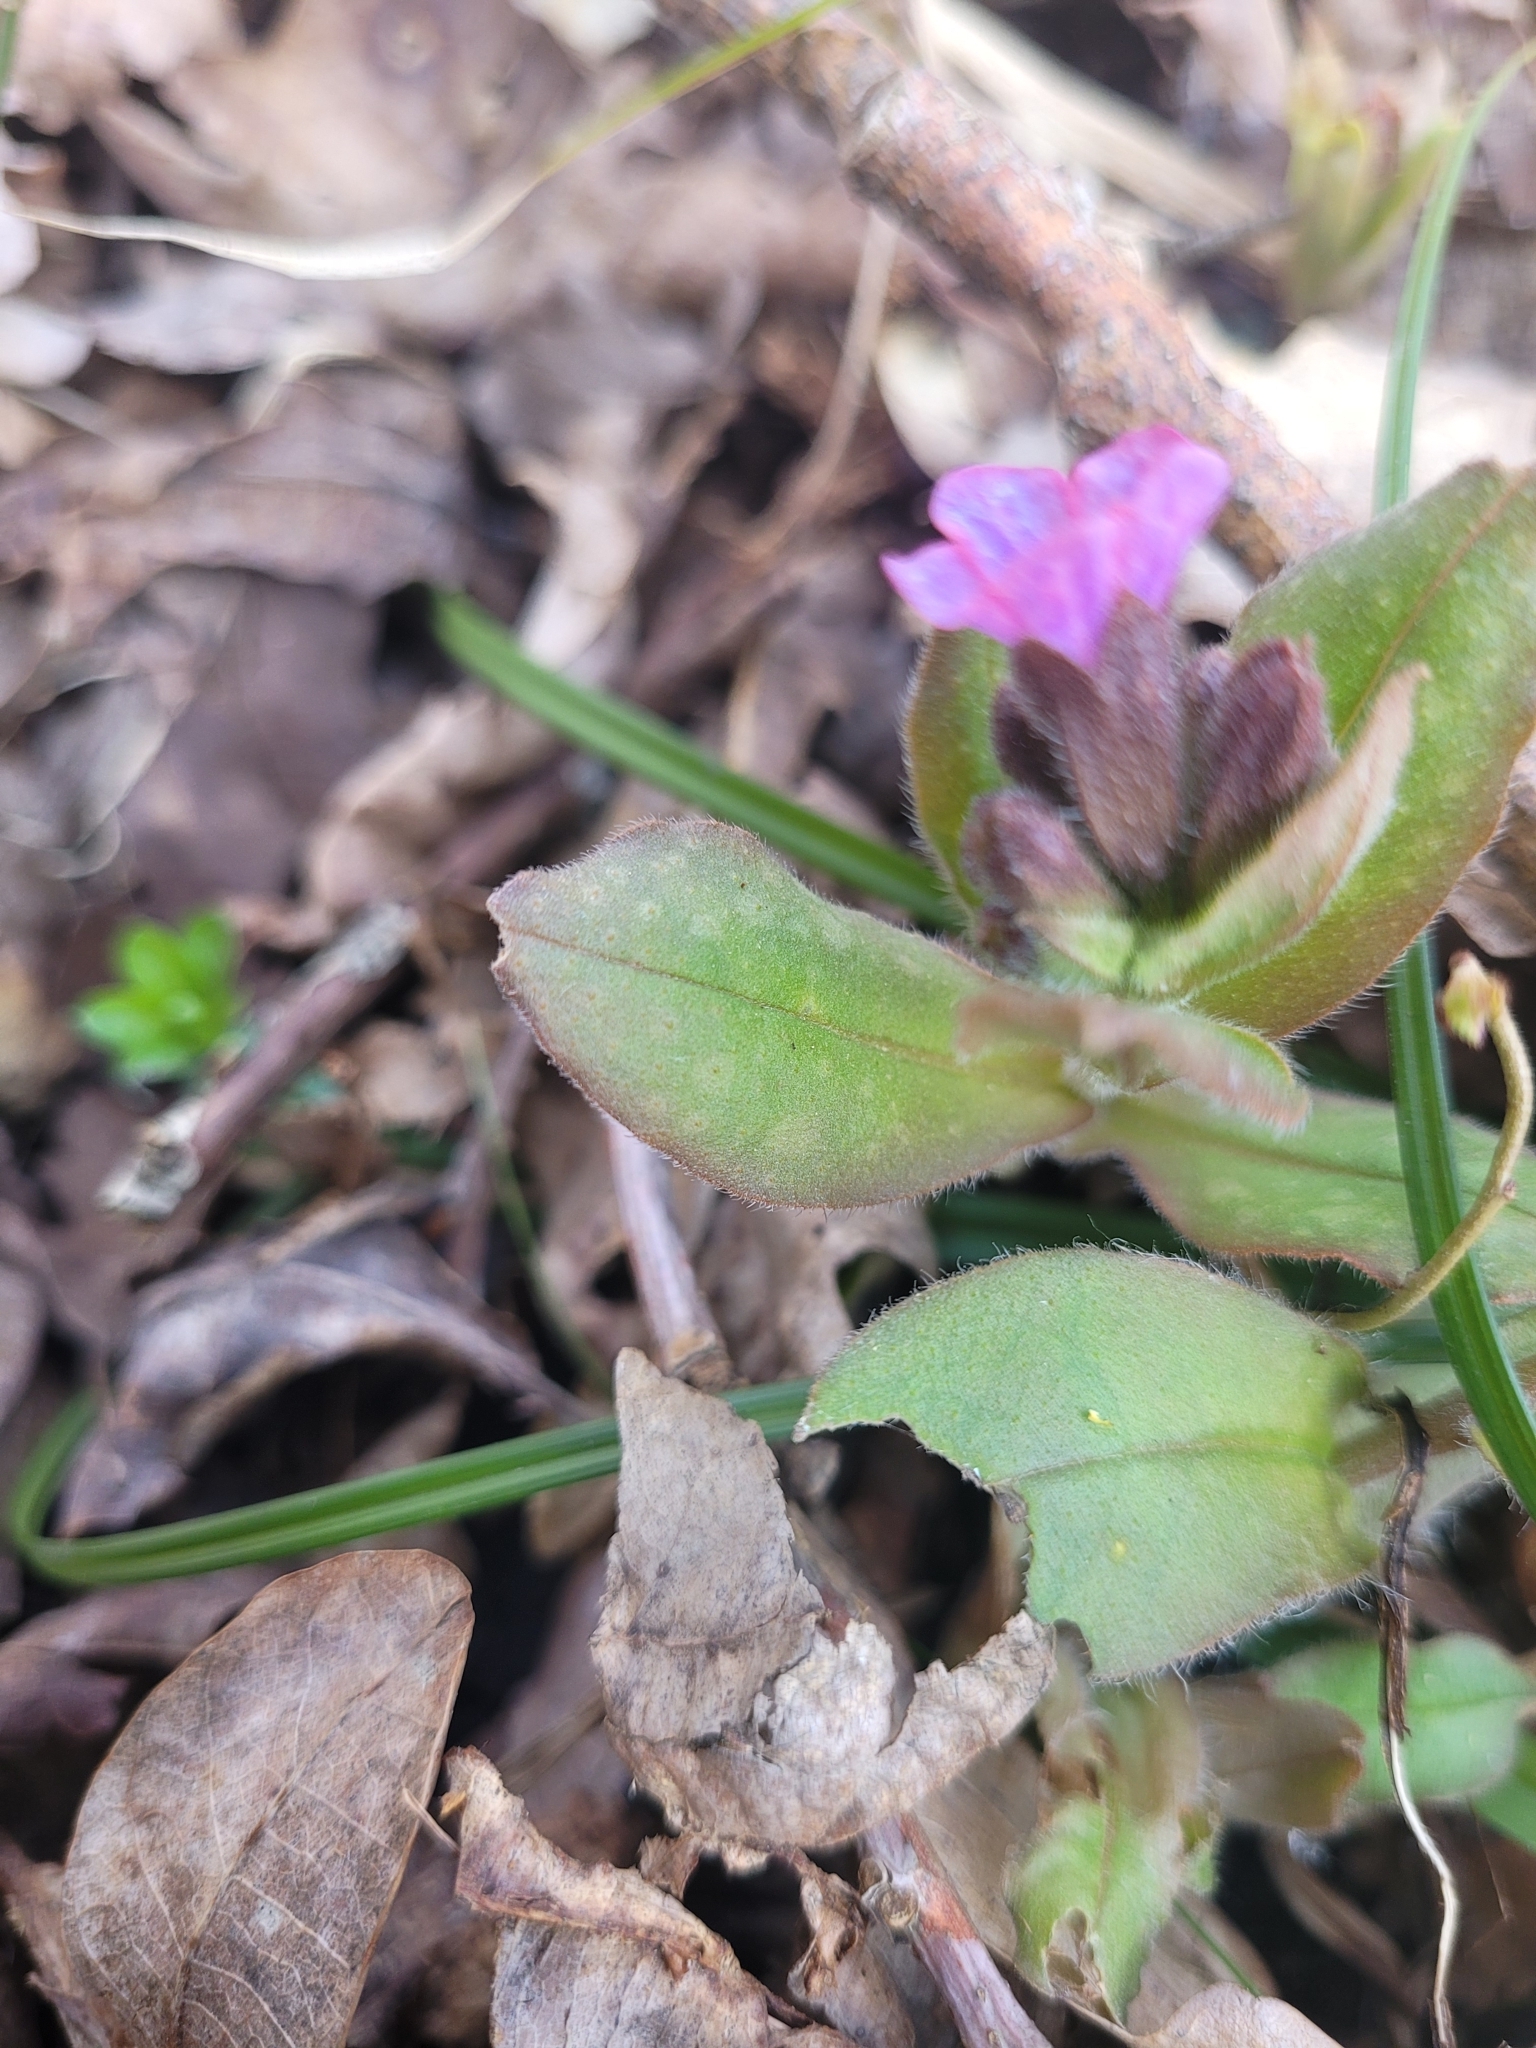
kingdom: Plantae
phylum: Tracheophyta
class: Magnoliopsida
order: Boraginales
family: Boraginaceae
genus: Pulmonaria
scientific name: Pulmonaria obscura
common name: Suffolk lungwort
